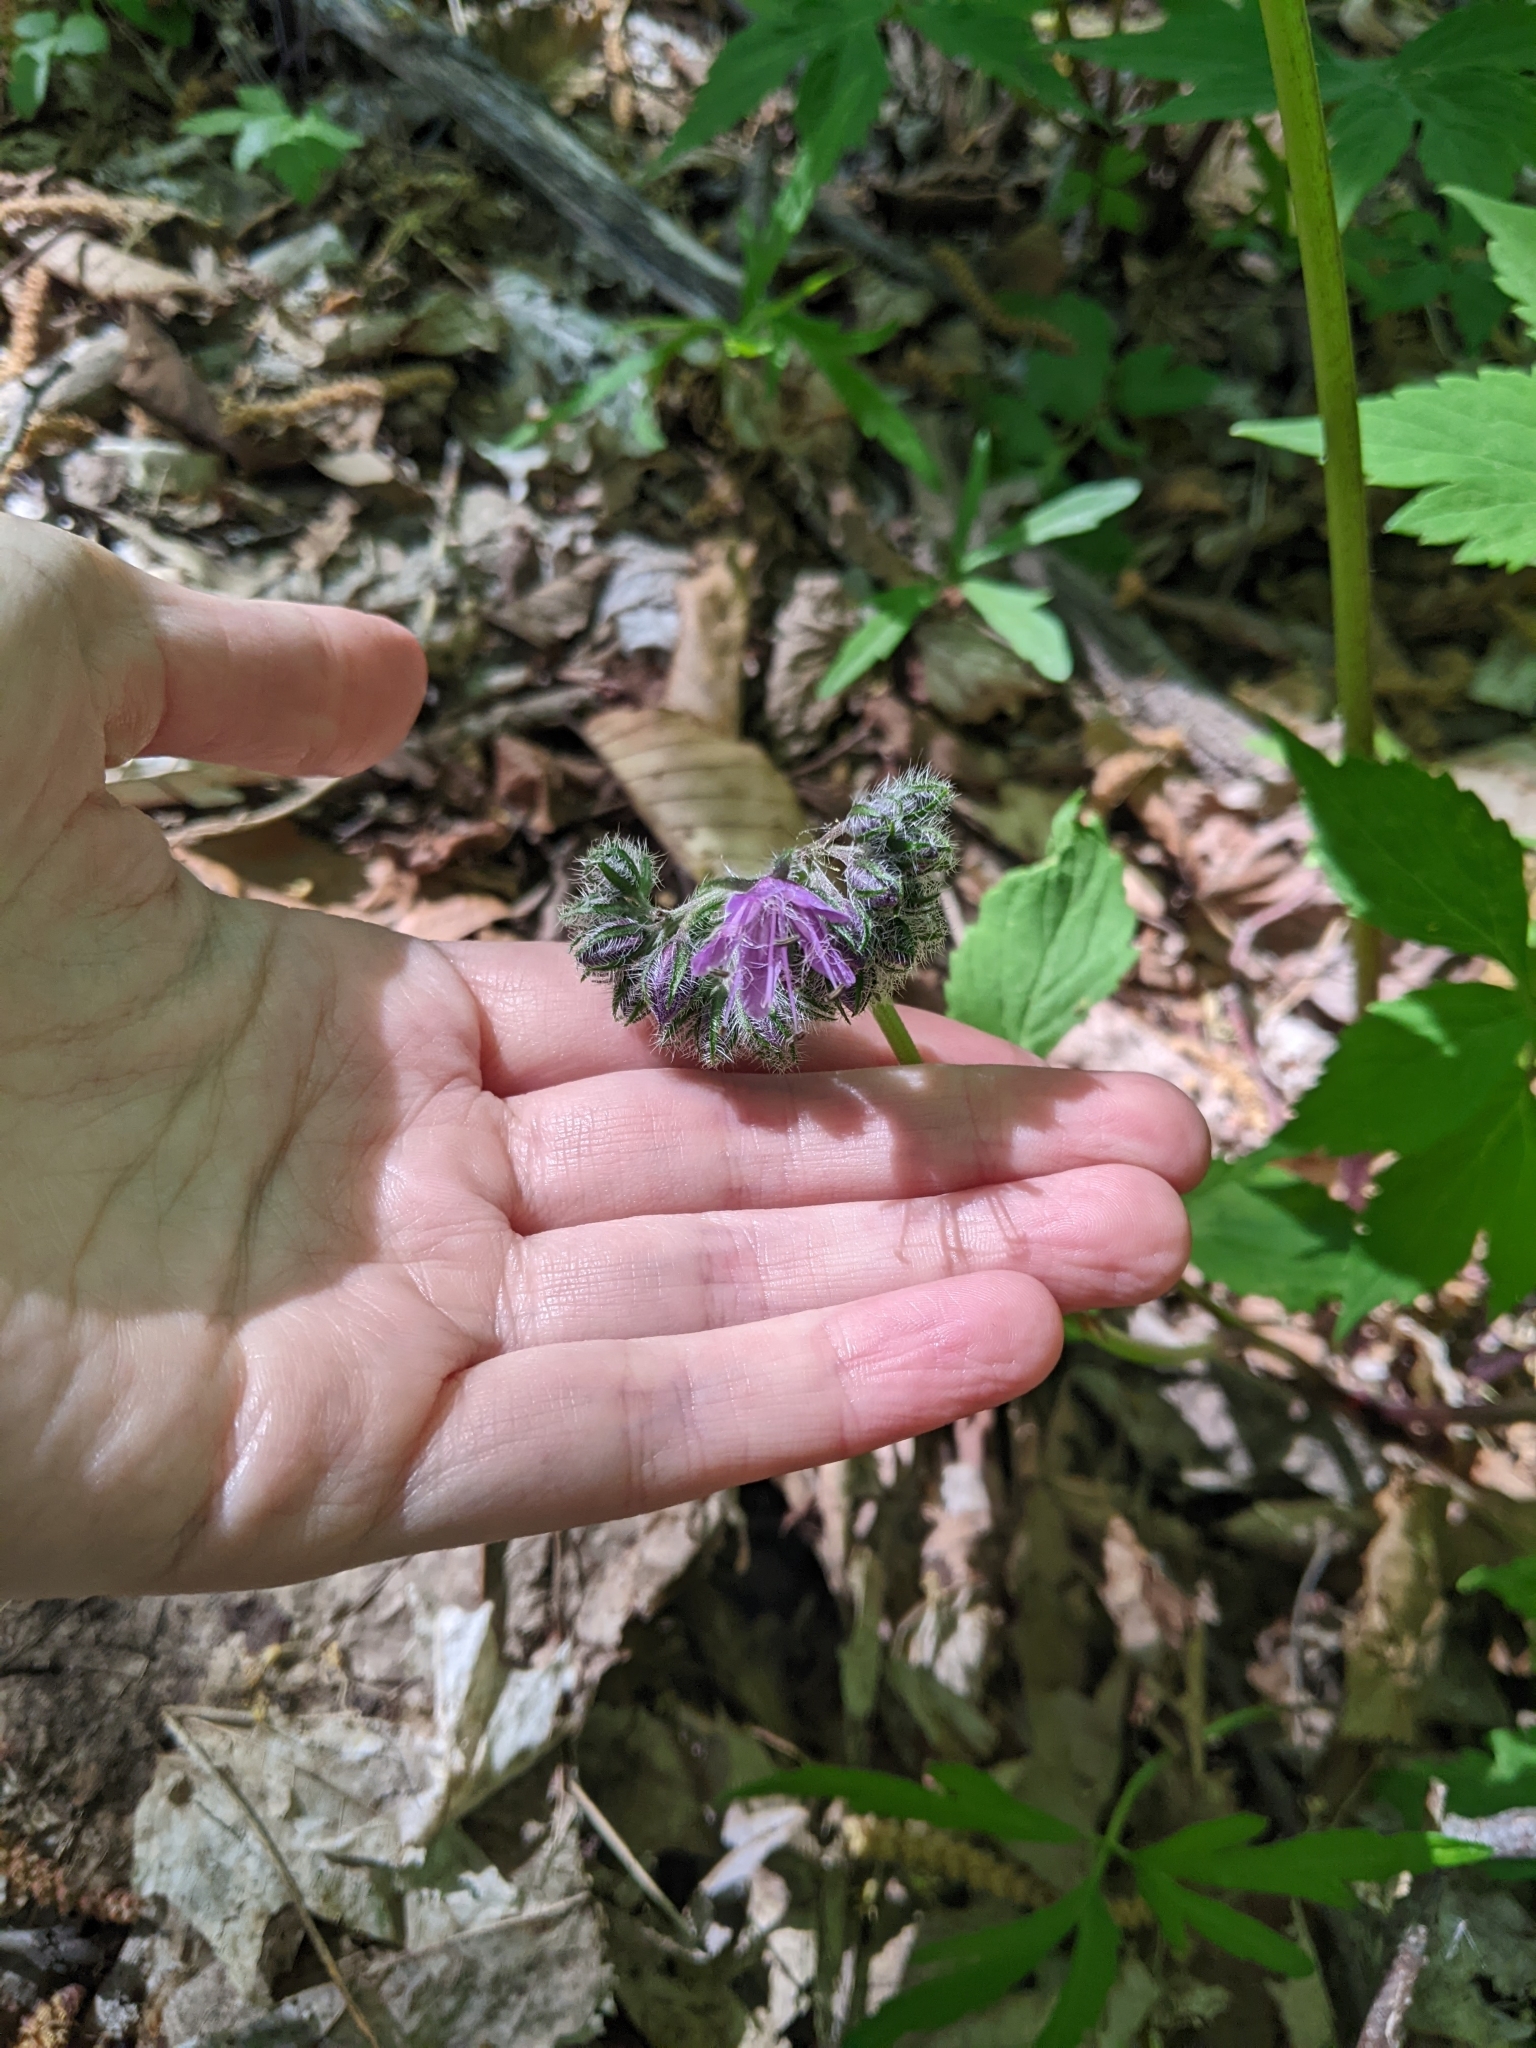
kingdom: Plantae
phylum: Tracheophyta
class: Magnoliopsida
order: Boraginales
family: Hydrophyllaceae
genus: Hydrophyllum
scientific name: Hydrophyllum virginianum
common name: Virginia waterleaf
